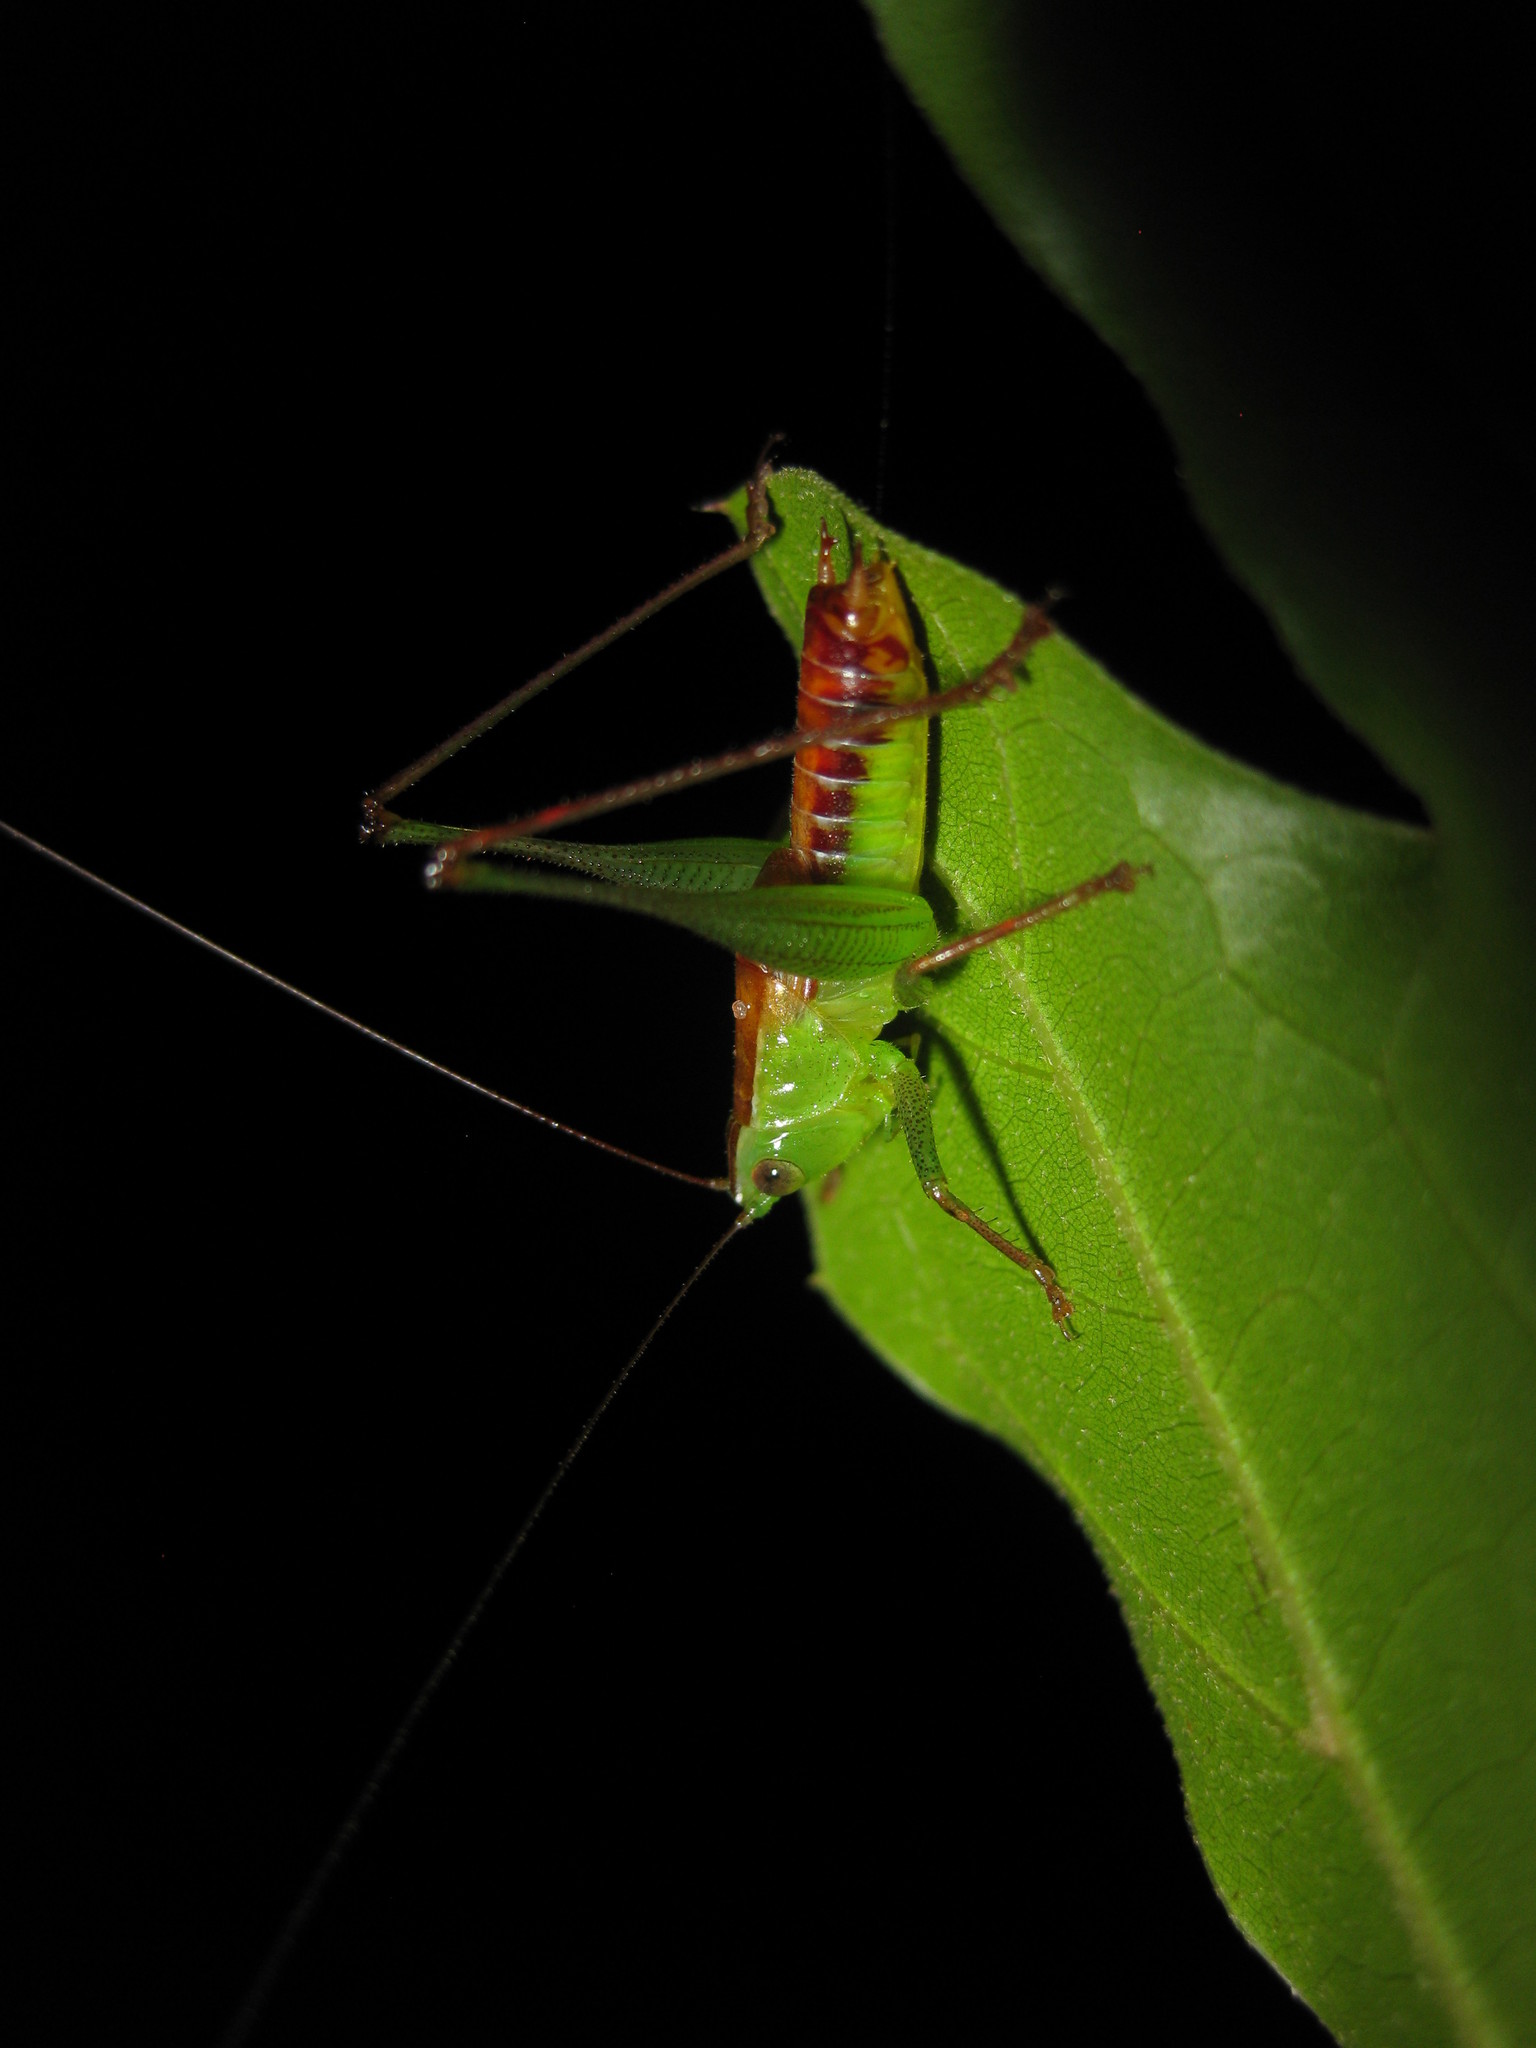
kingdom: Animalia
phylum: Arthropoda
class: Insecta
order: Orthoptera
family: Tettigoniidae
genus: Odontoxiphidium
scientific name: Odontoxiphidium apterum
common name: Wingless meadow katydid
